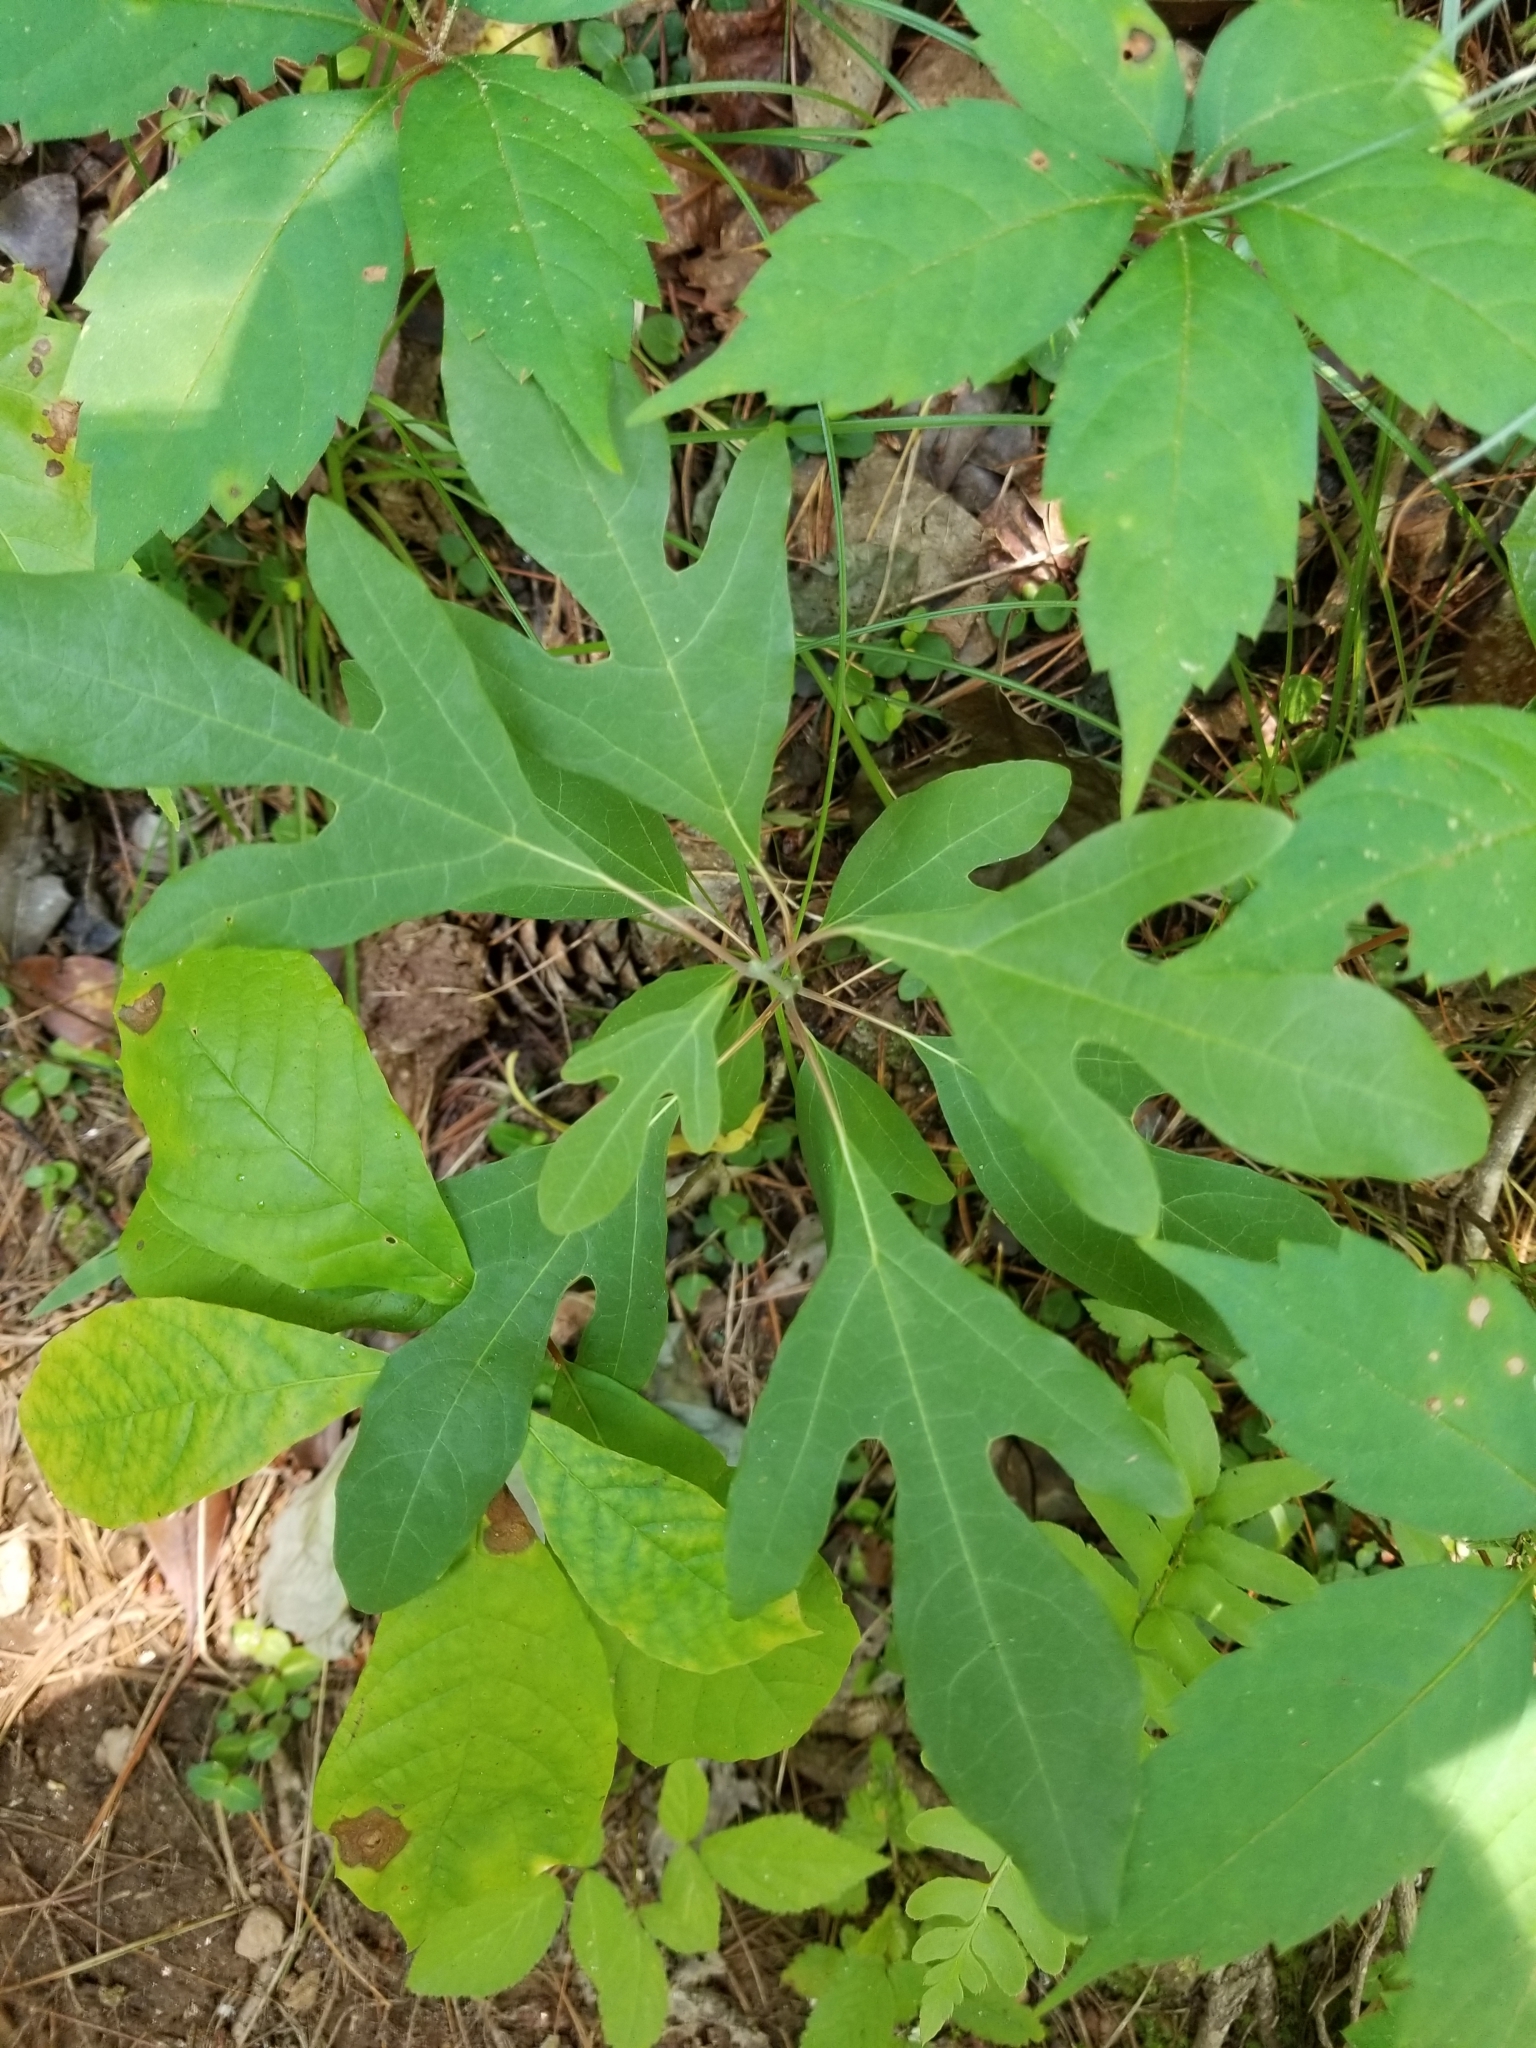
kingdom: Plantae
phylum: Tracheophyta
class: Magnoliopsida
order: Laurales
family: Lauraceae
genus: Sassafras
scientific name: Sassafras albidum
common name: Sassafras
